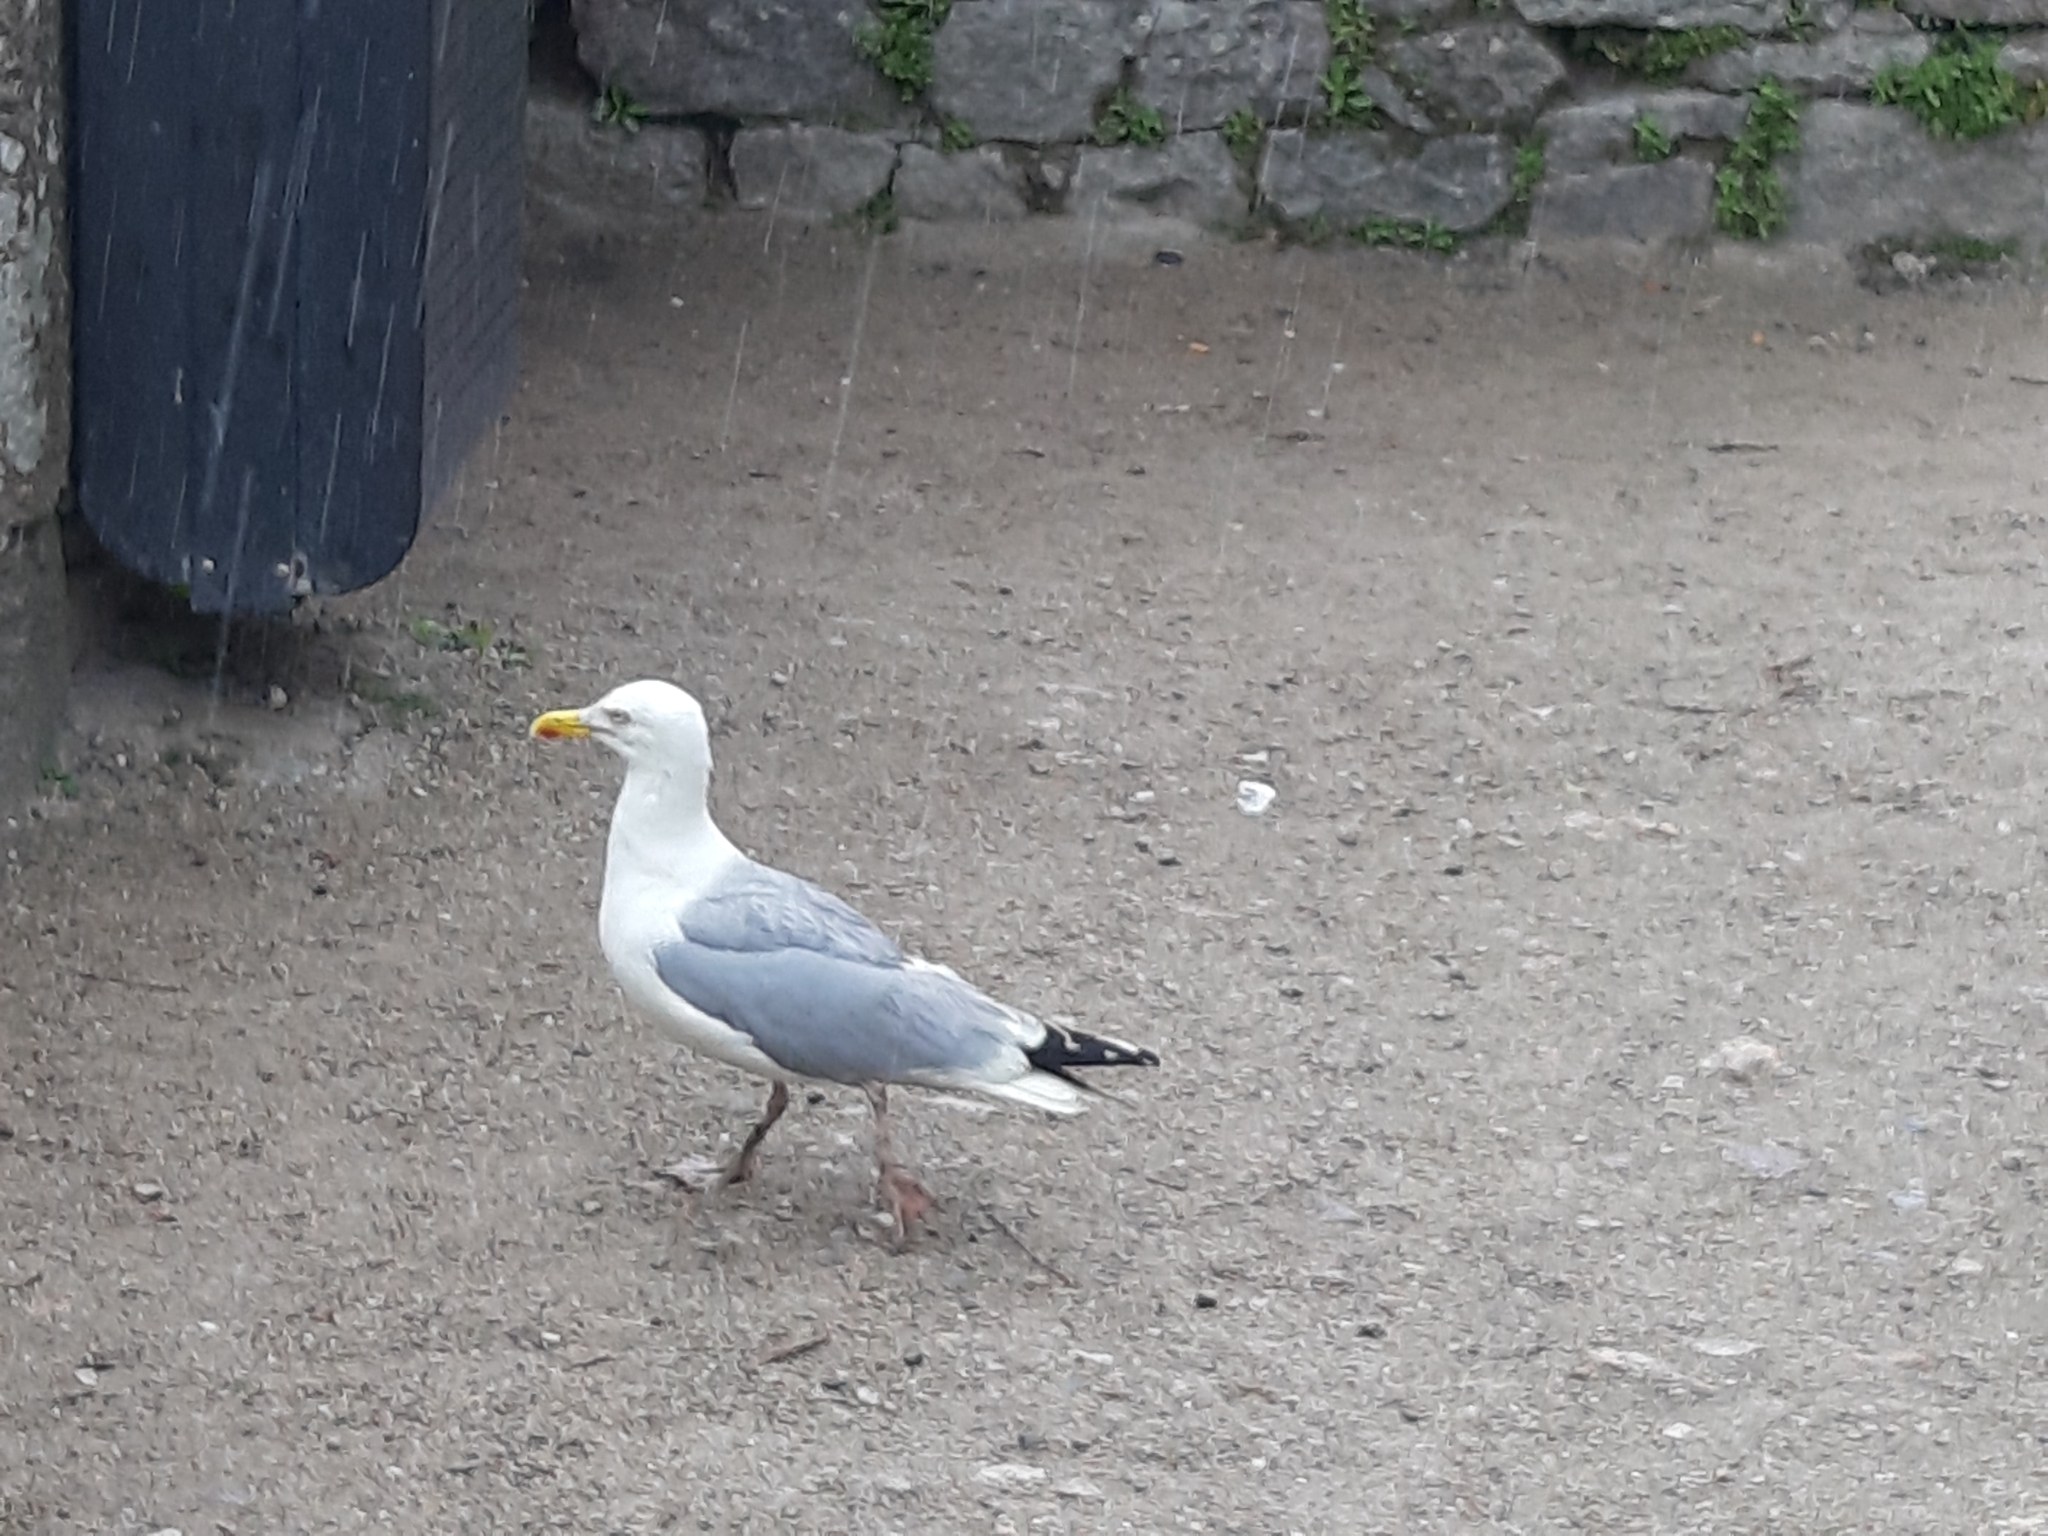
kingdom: Animalia
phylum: Chordata
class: Aves
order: Charadriiformes
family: Laridae
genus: Larus
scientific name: Larus argentatus
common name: Herring gull
